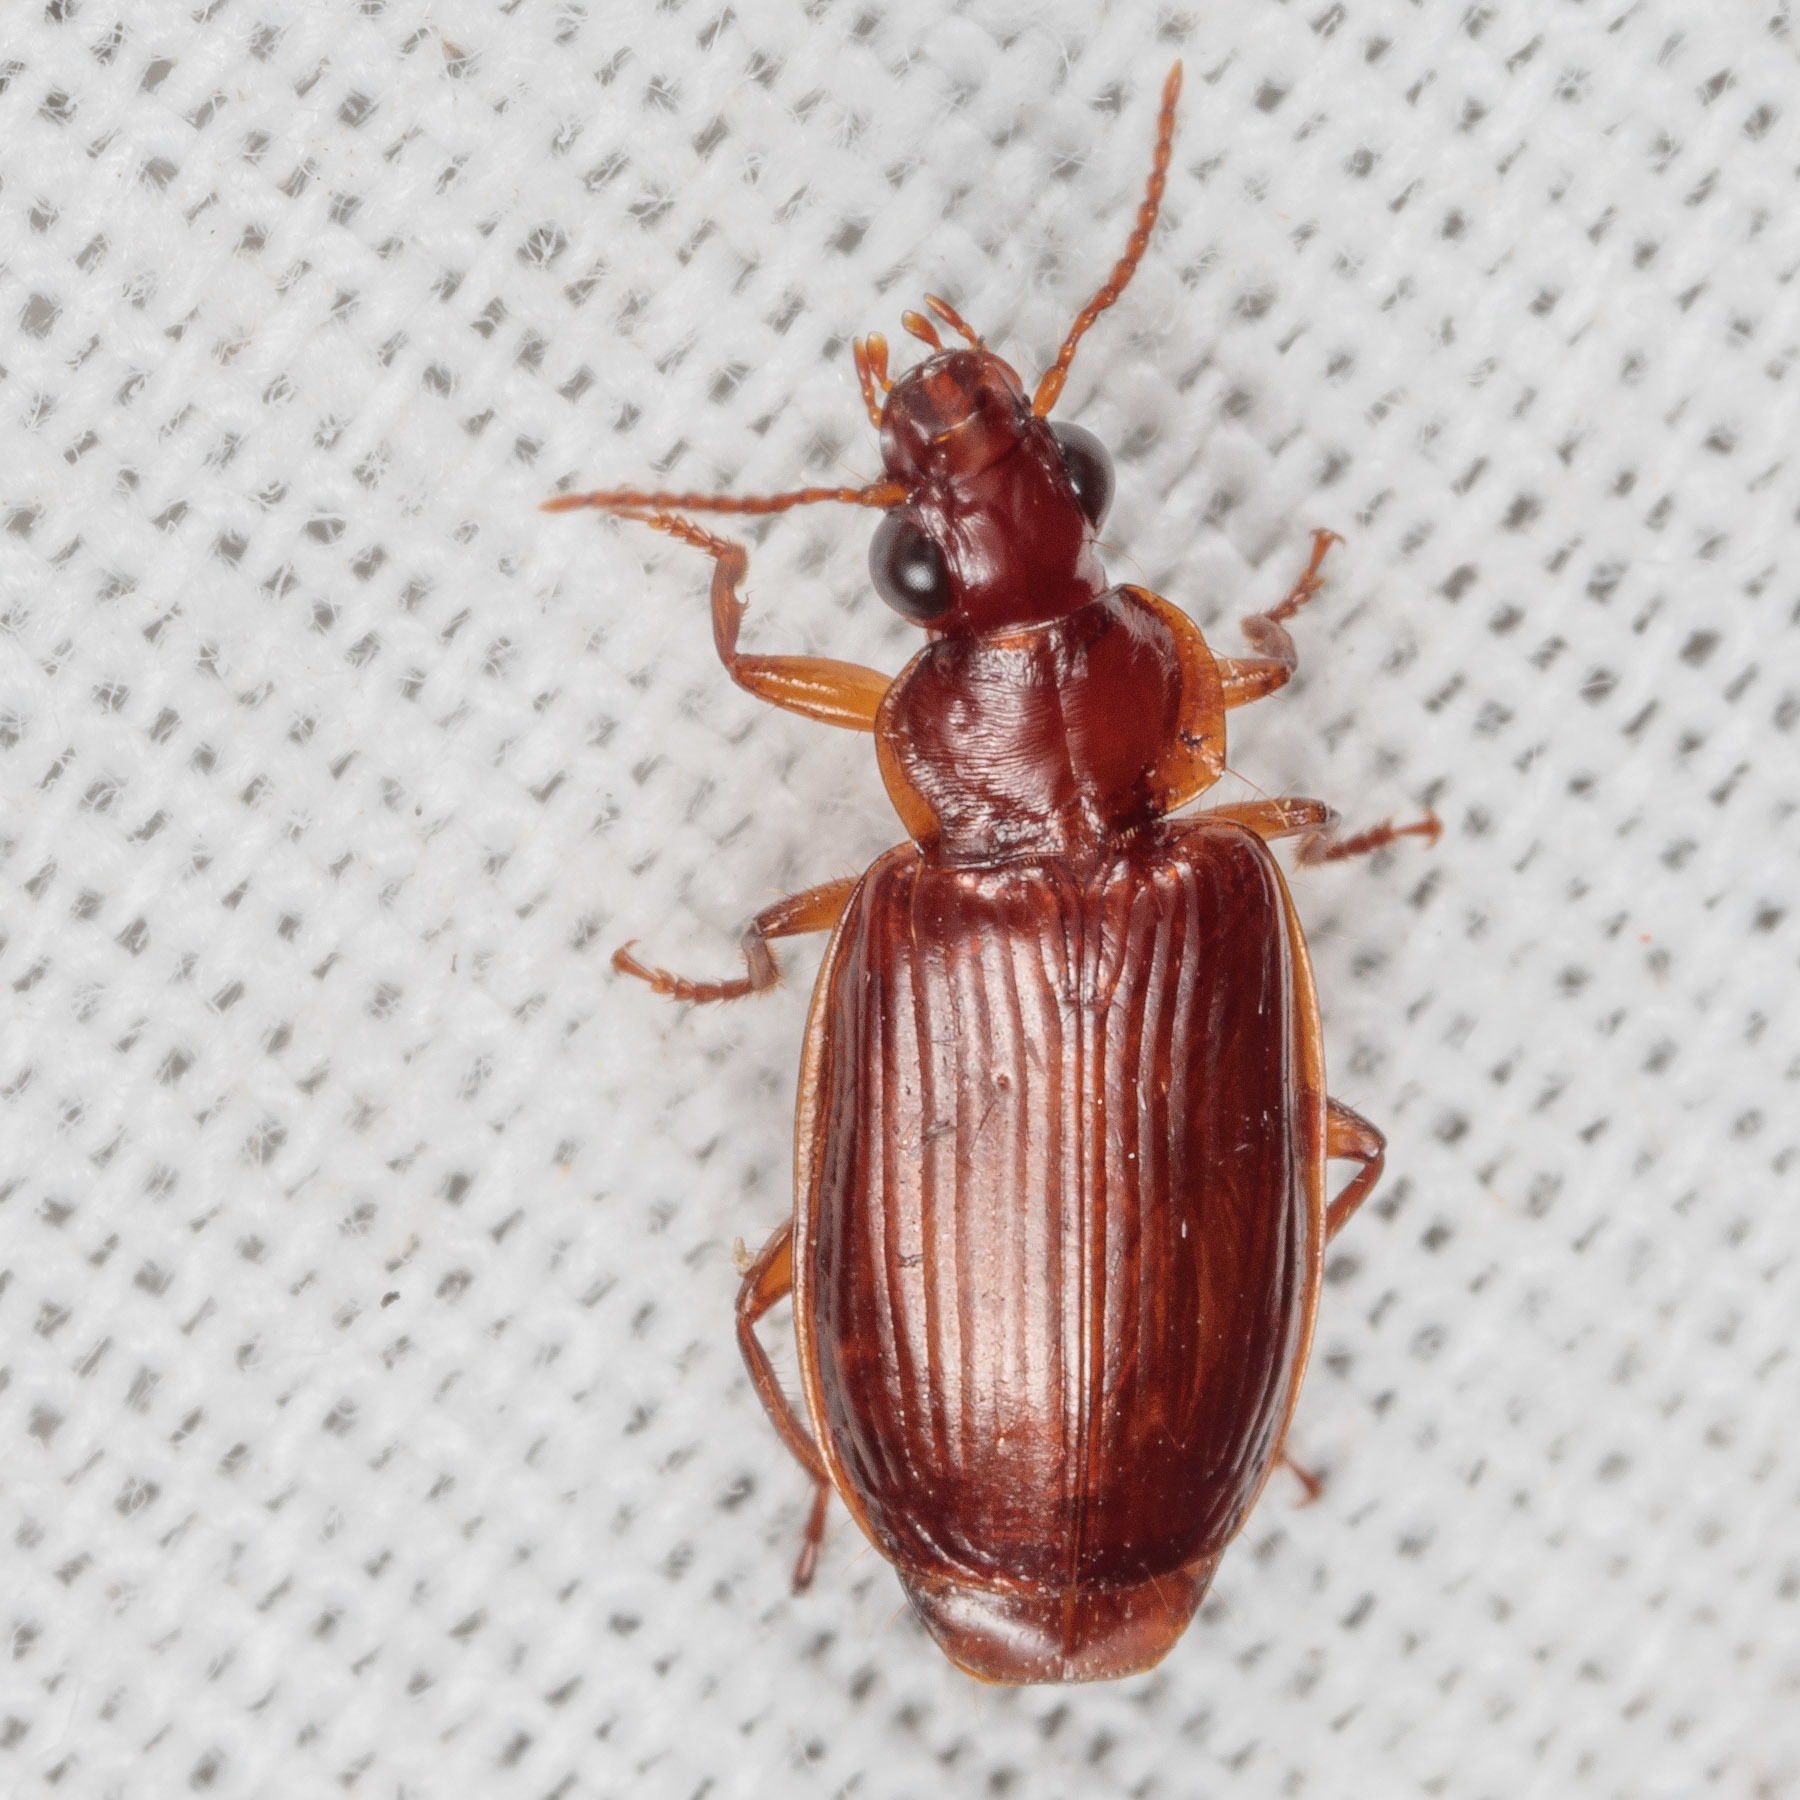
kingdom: Animalia
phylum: Arthropoda
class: Insecta
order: Coleoptera
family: Carabidae
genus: Plochionus
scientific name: Plochionus timidus
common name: Timid harp ground beetle
